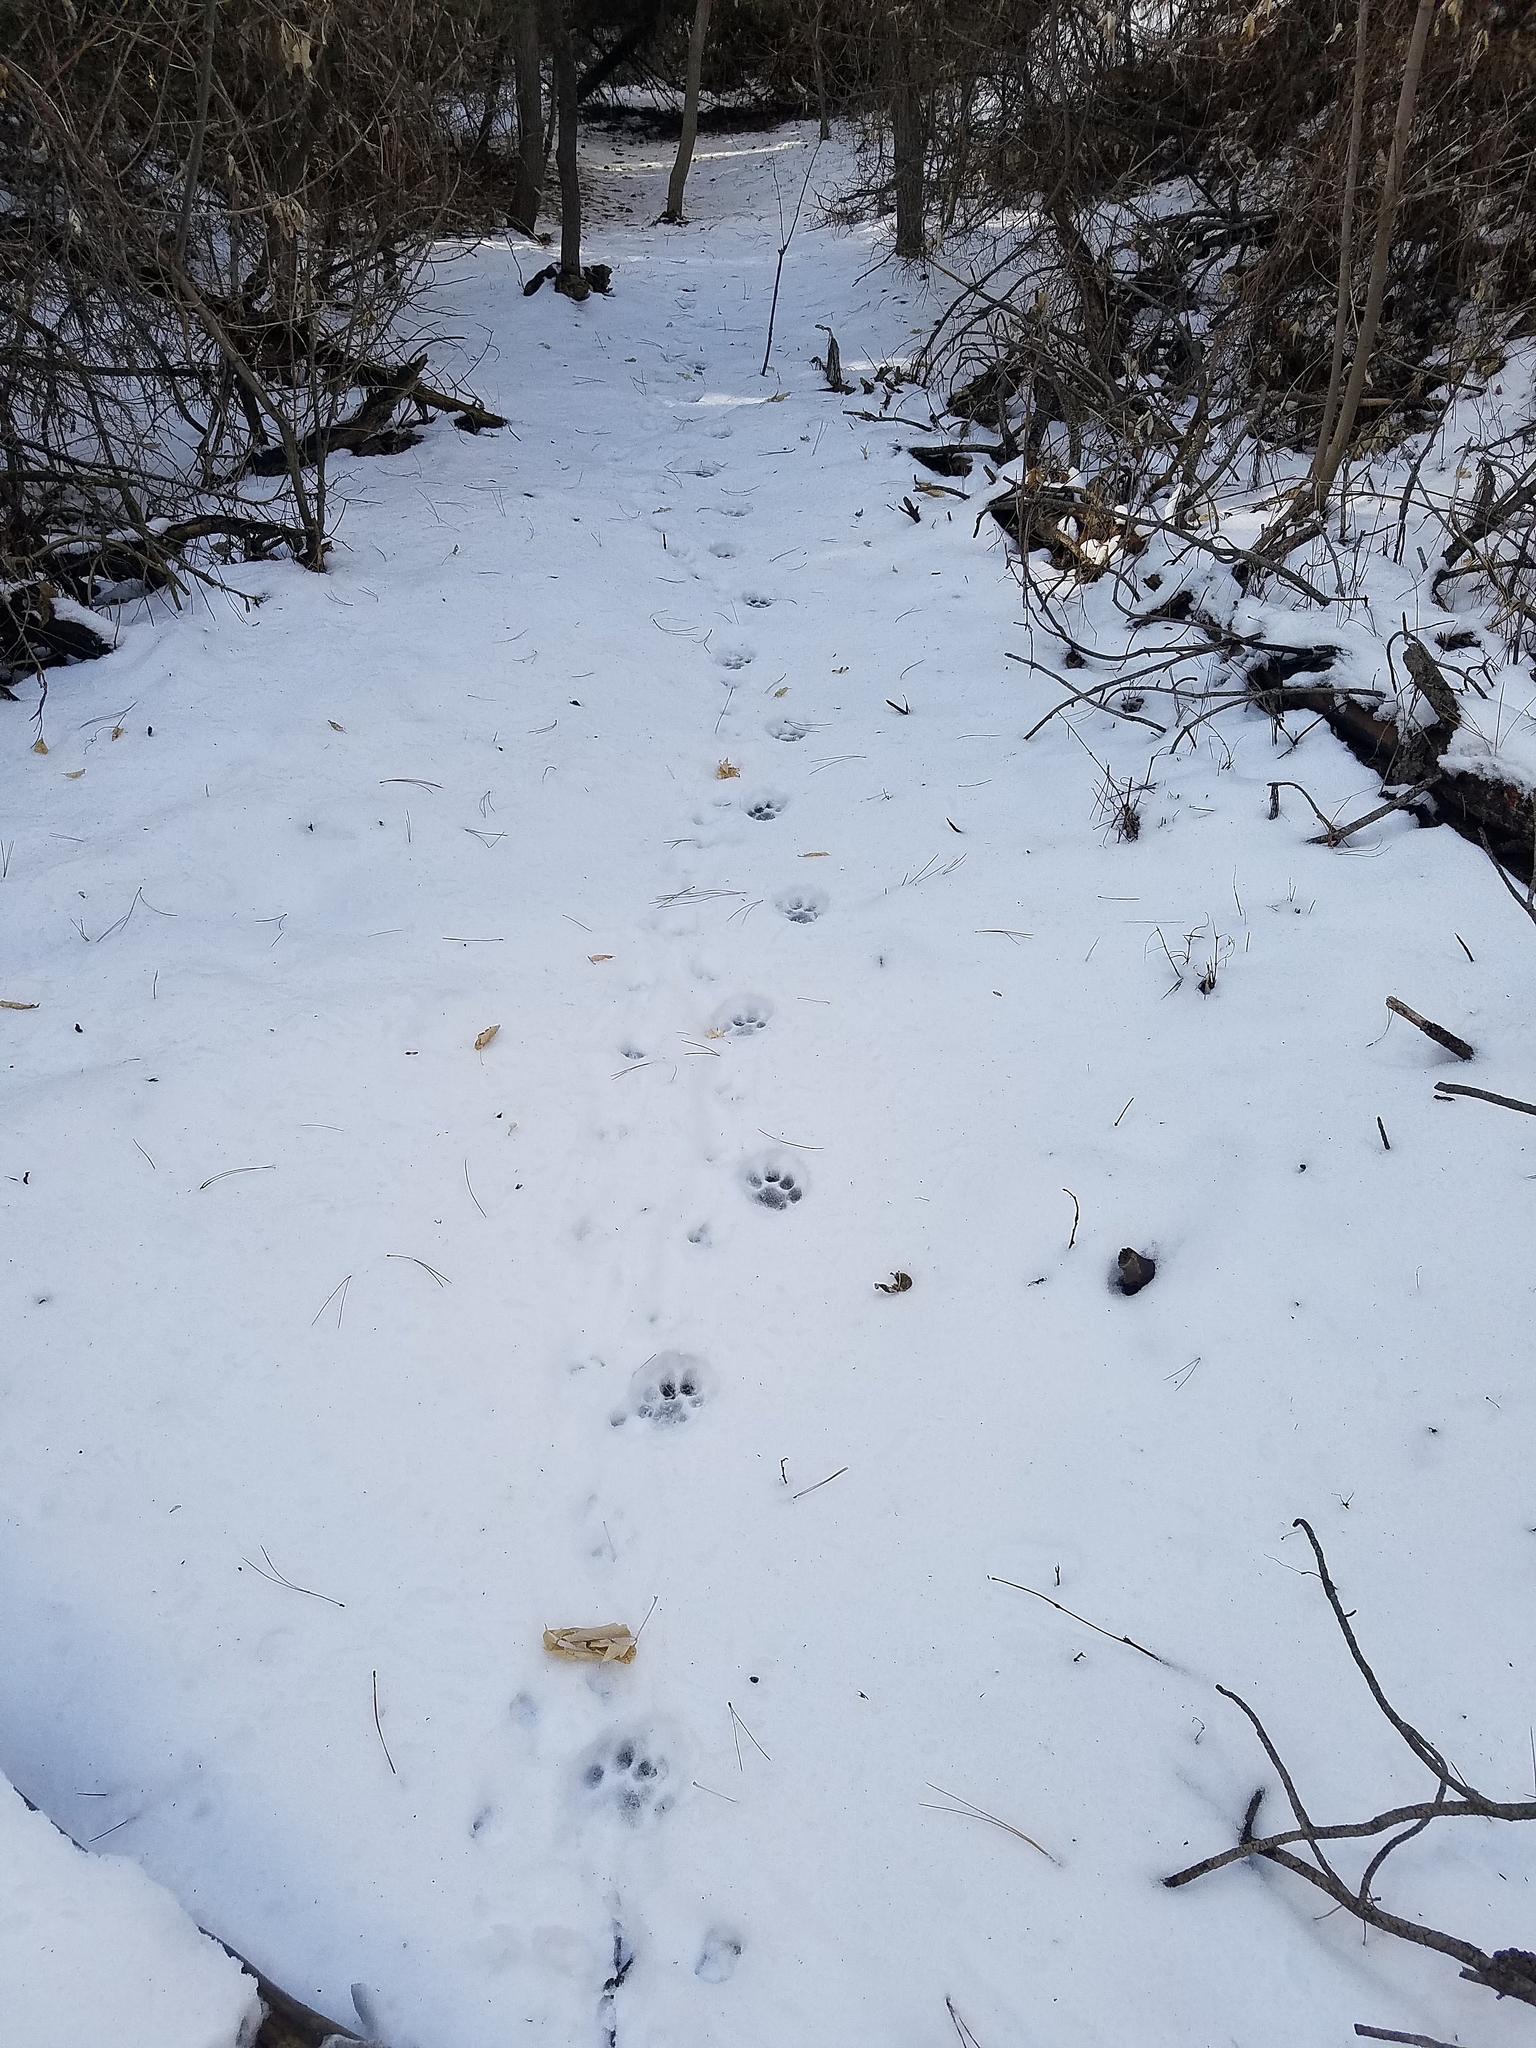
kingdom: Animalia
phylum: Chordata
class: Mammalia
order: Carnivora
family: Felidae
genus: Puma
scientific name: Puma concolor
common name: Puma
